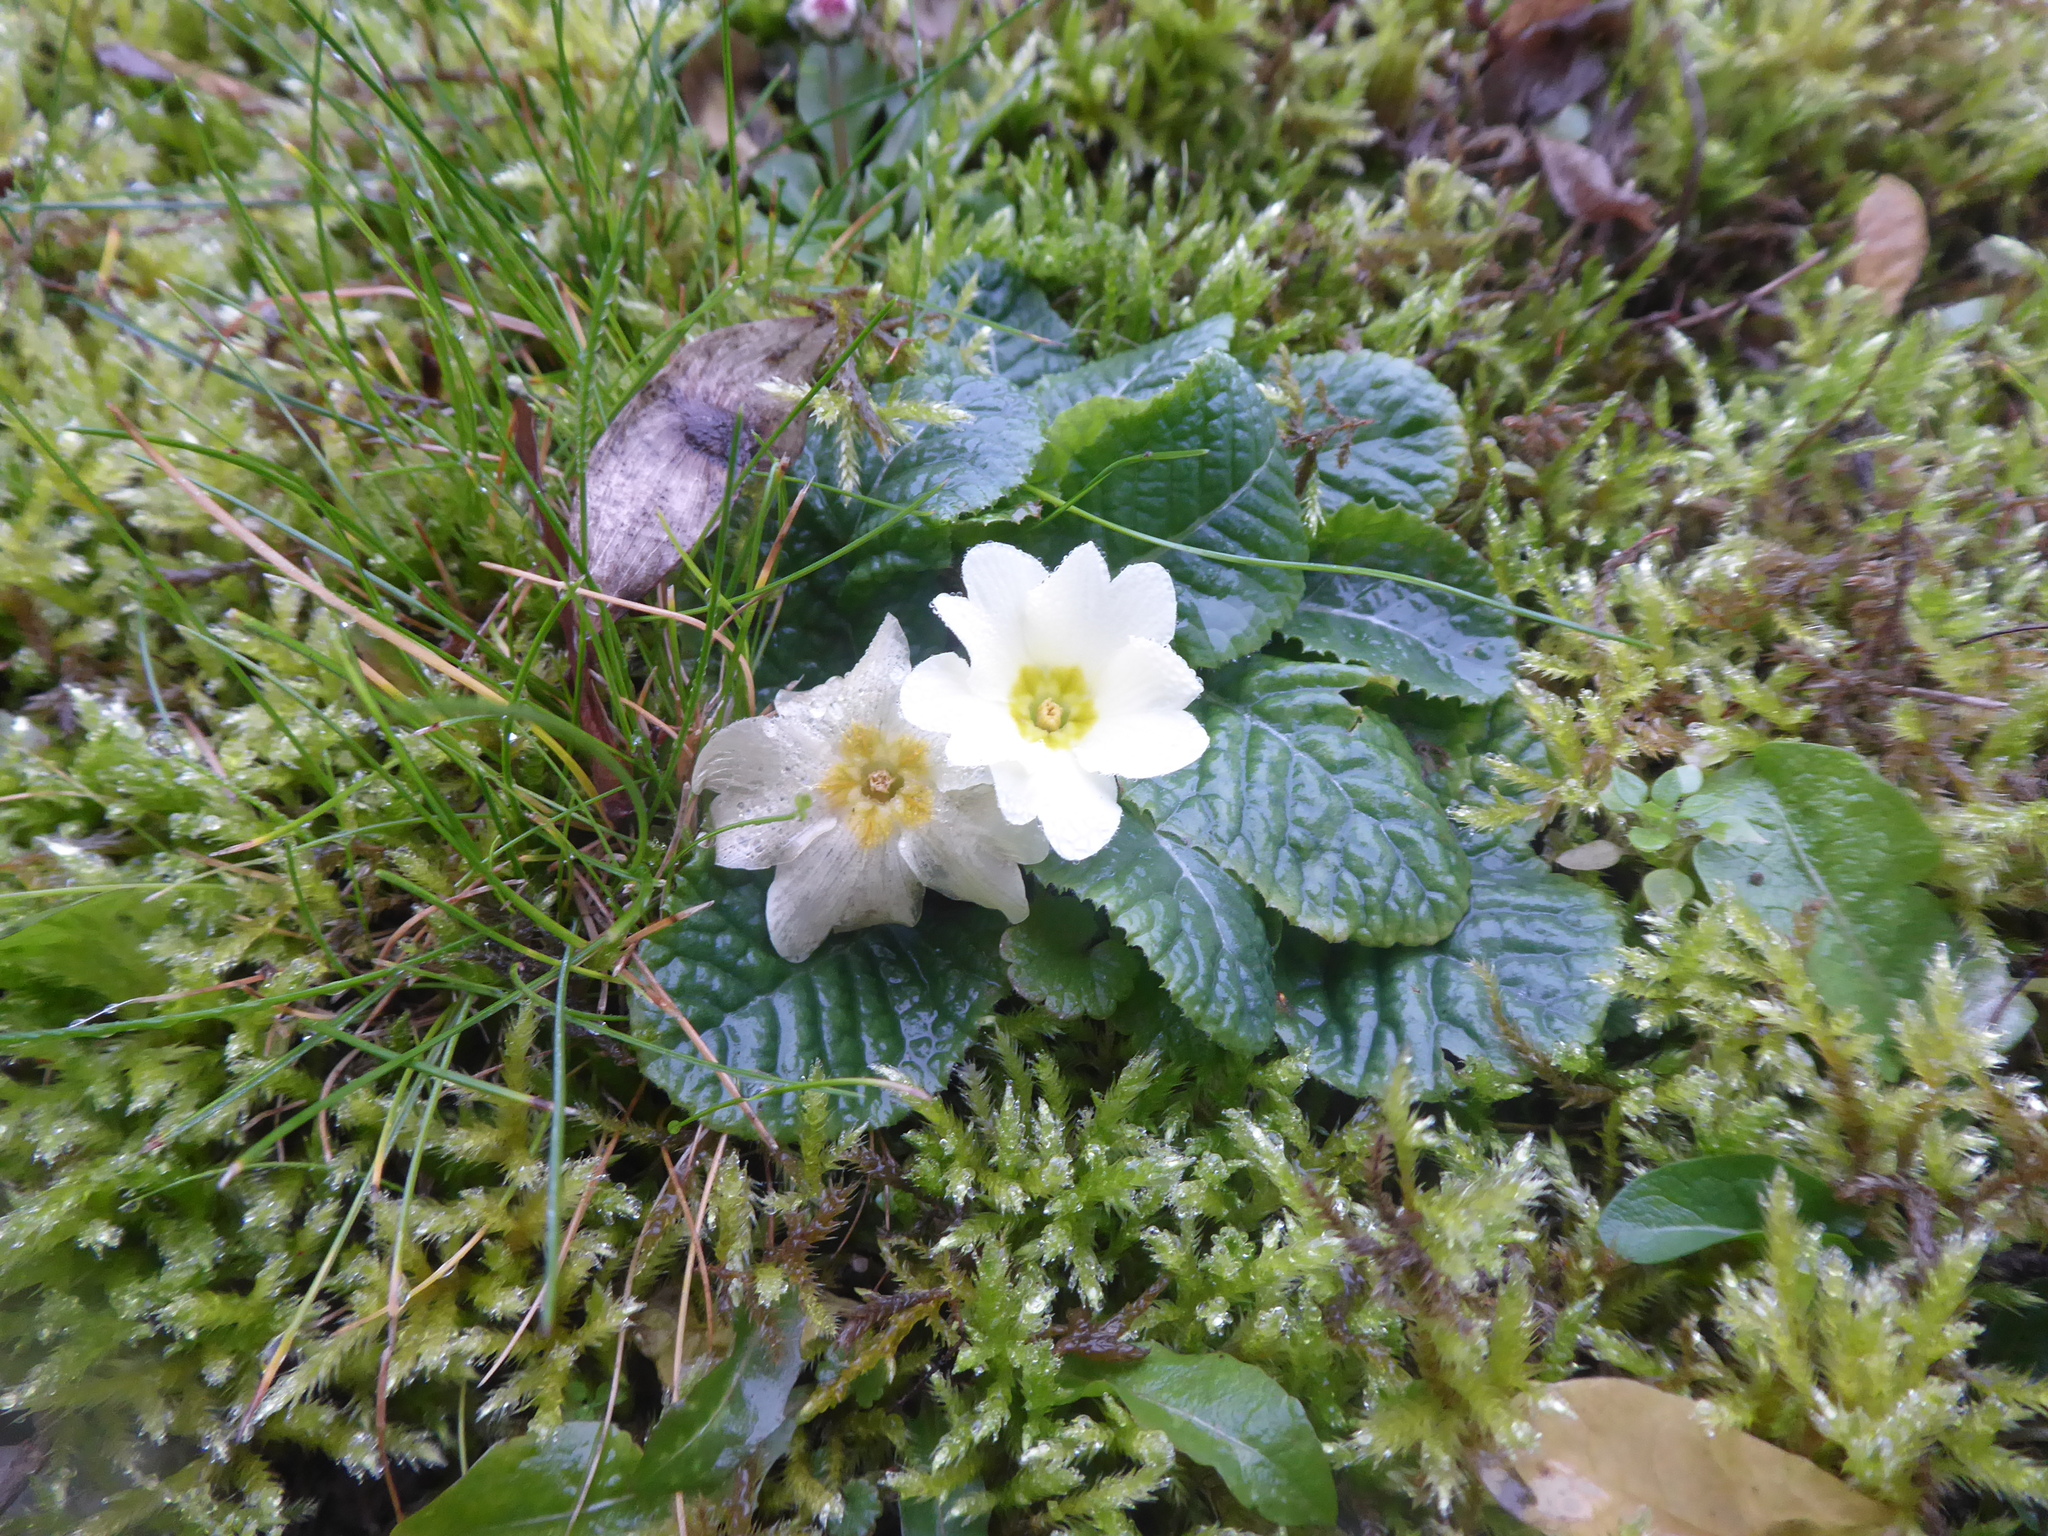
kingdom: Plantae
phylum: Tracheophyta
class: Magnoliopsida
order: Ericales
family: Primulaceae
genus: Primula
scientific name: Primula vulgaris
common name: Primrose
